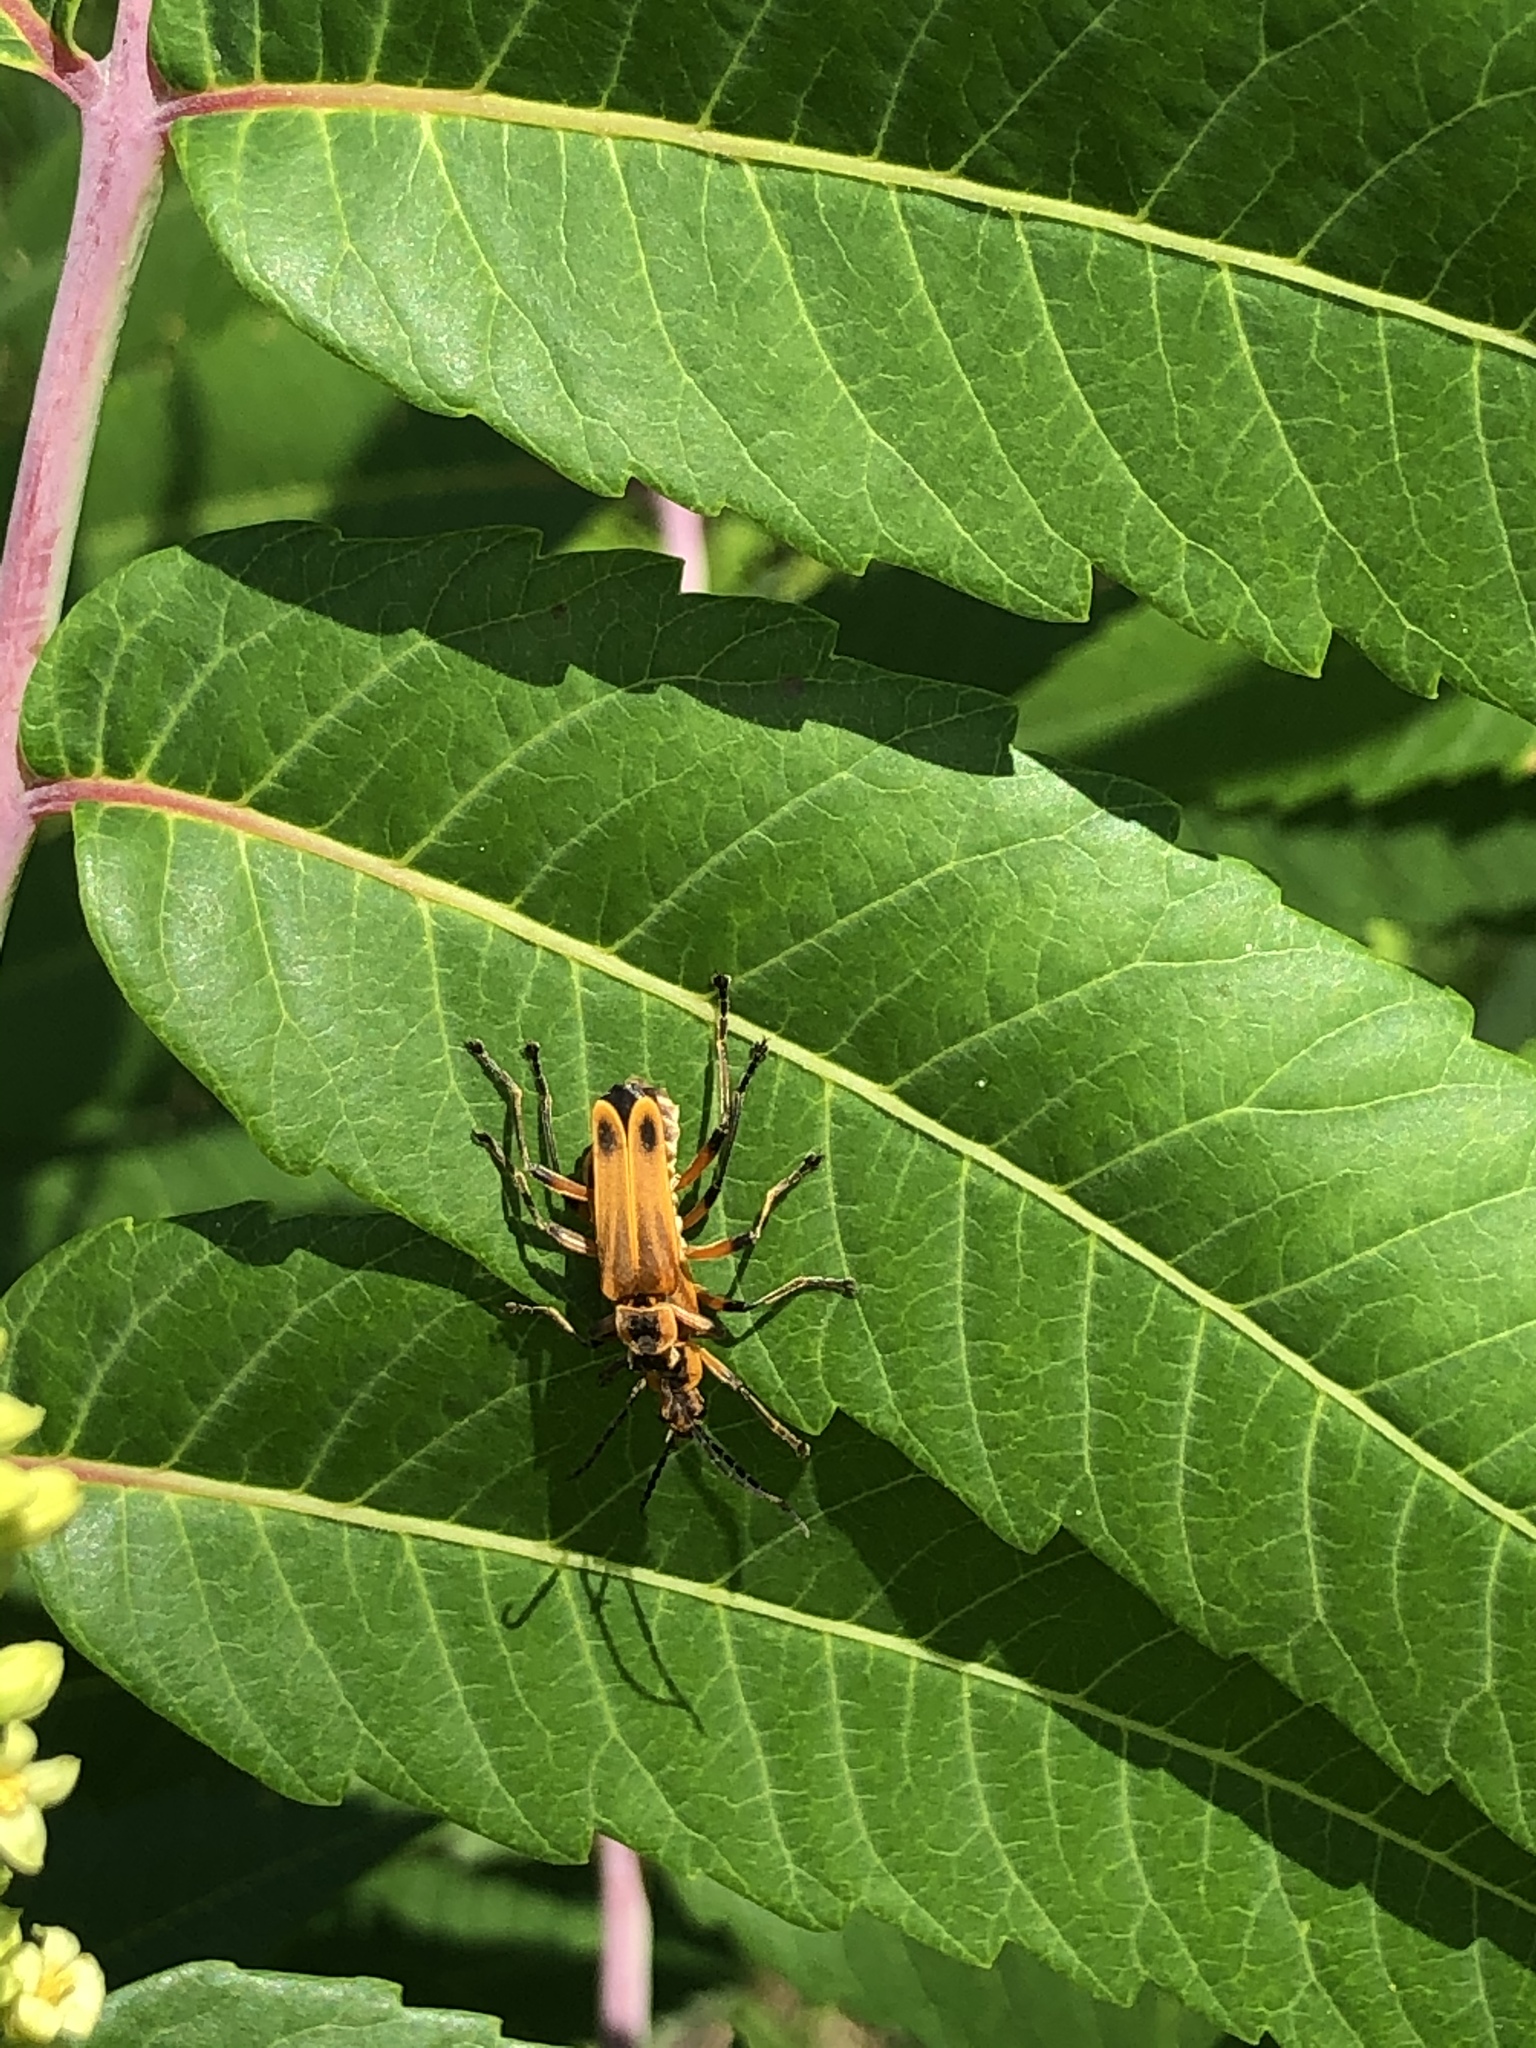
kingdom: Animalia
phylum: Arthropoda
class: Insecta
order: Coleoptera
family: Cantharidae
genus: Chauliognathus
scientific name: Chauliognathus marginatus
